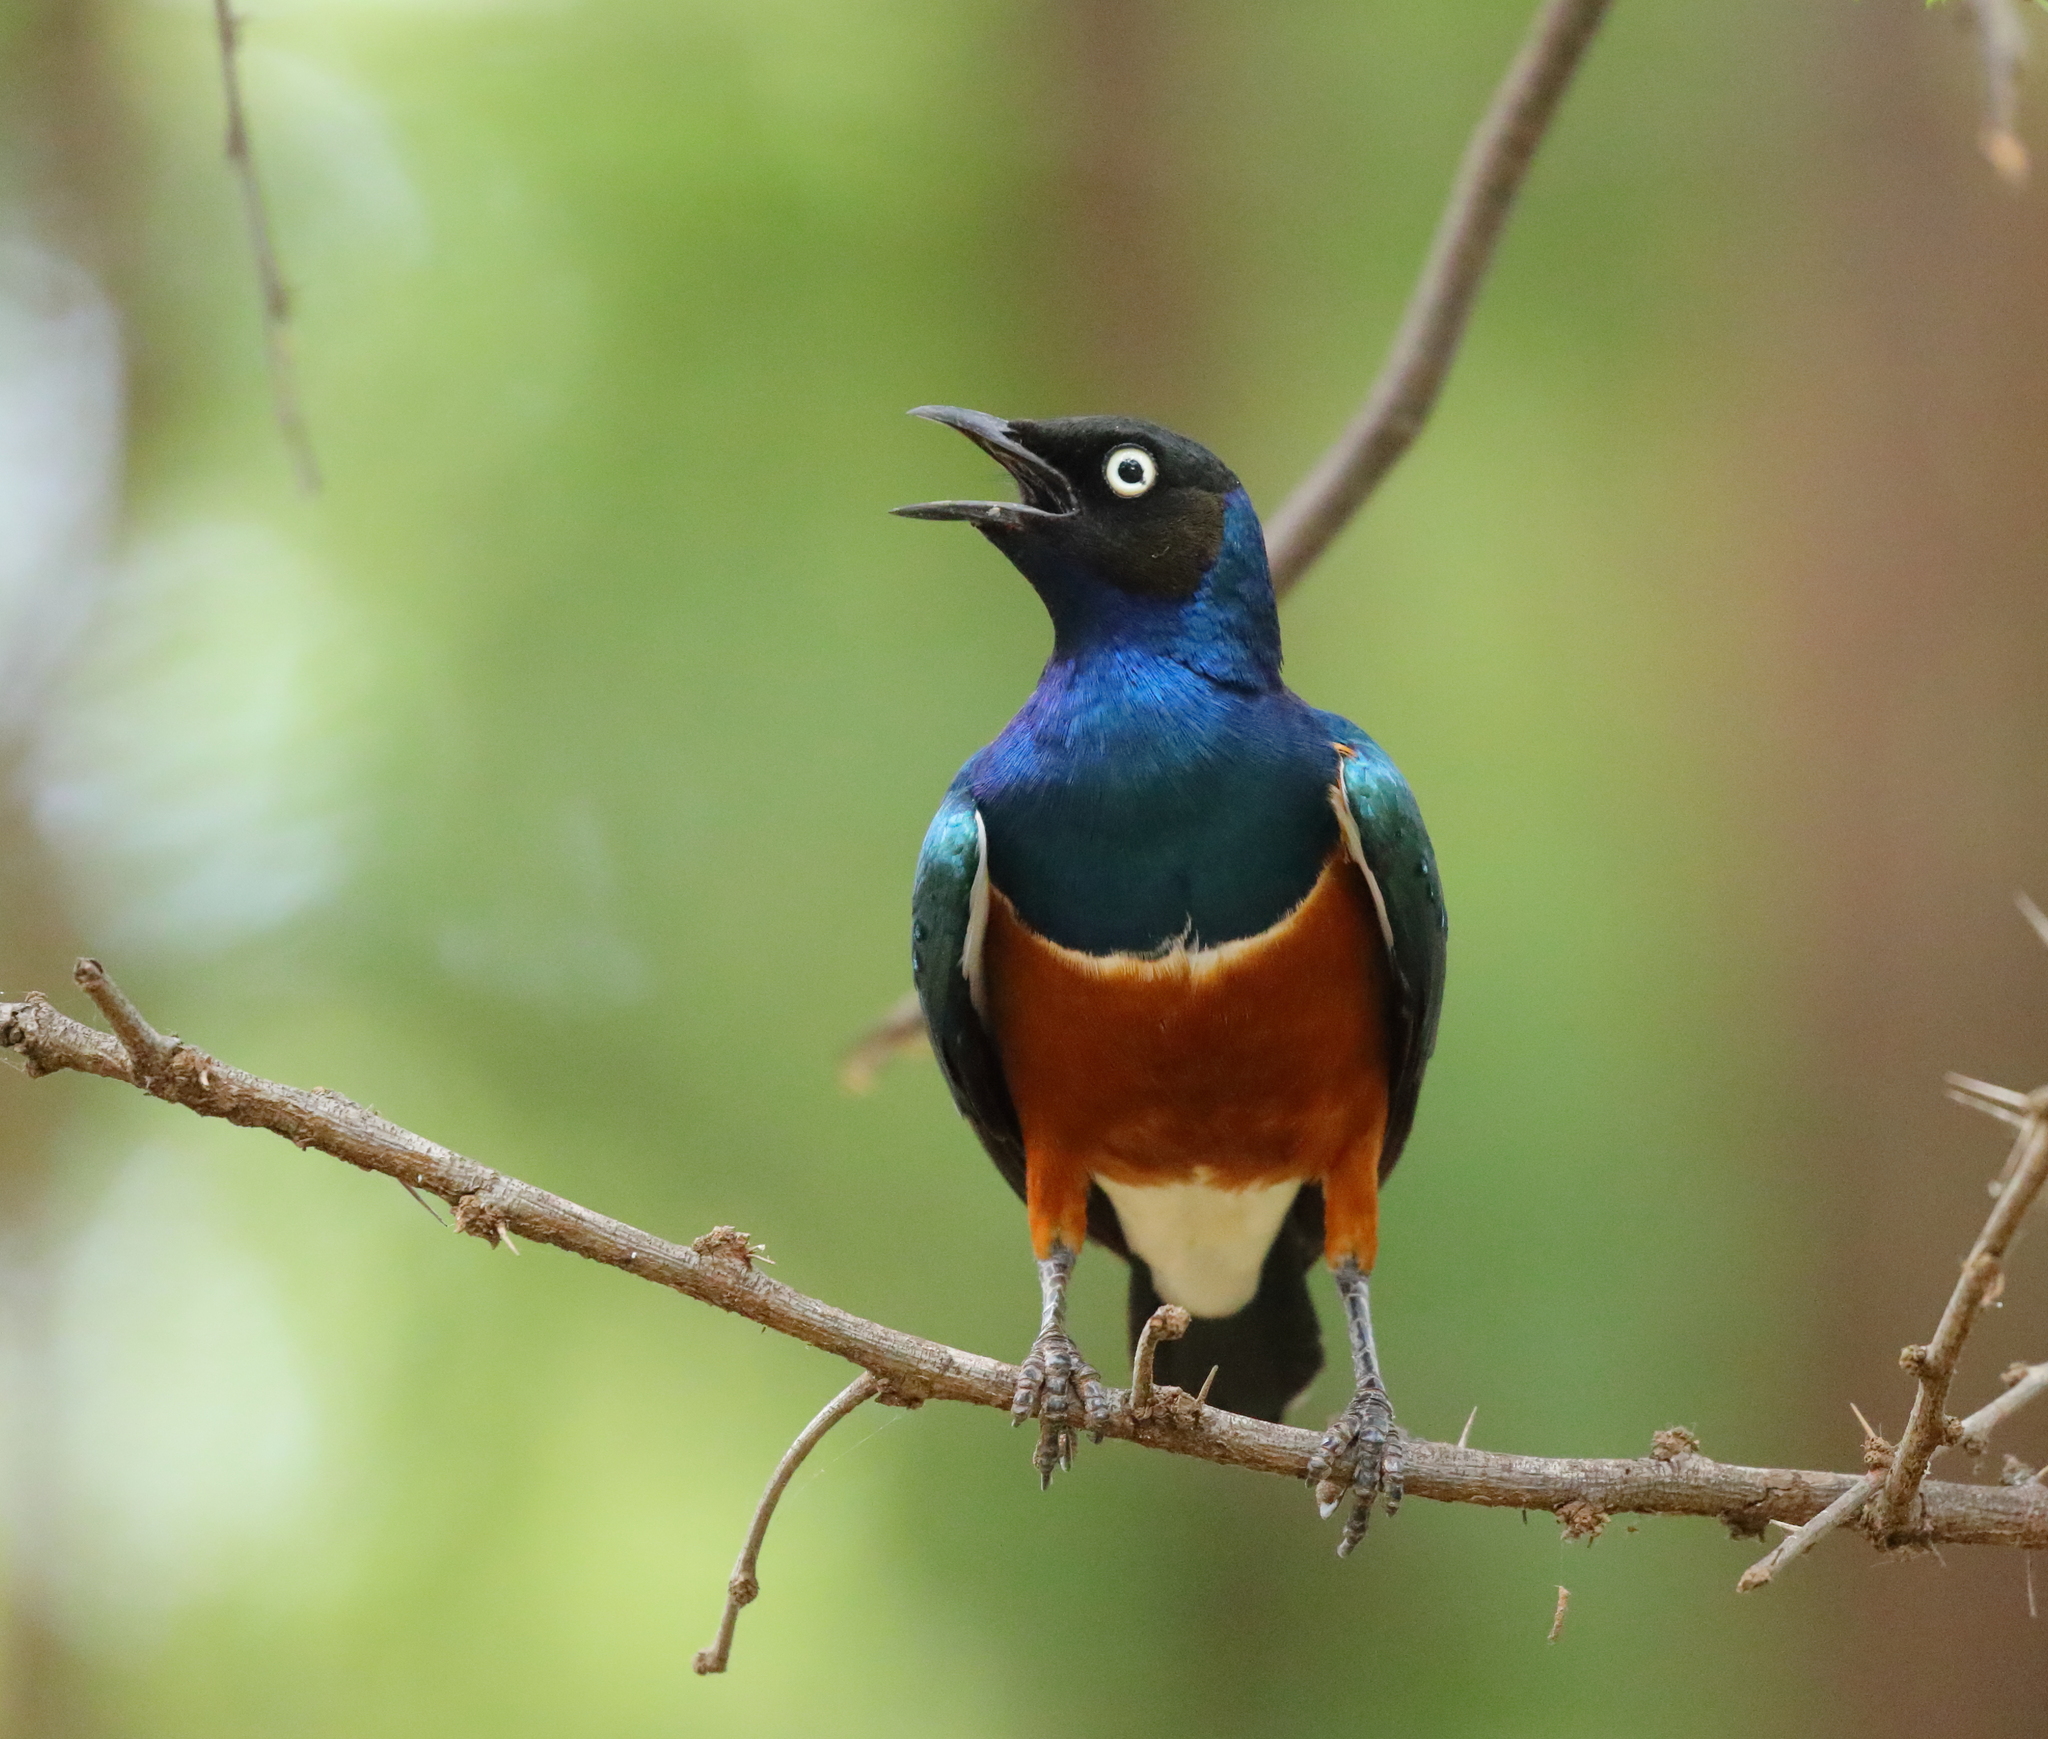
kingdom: Animalia
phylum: Chordata
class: Aves
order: Passeriformes
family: Sturnidae
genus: Lamprotornis
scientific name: Lamprotornis superbus
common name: Superb starling
